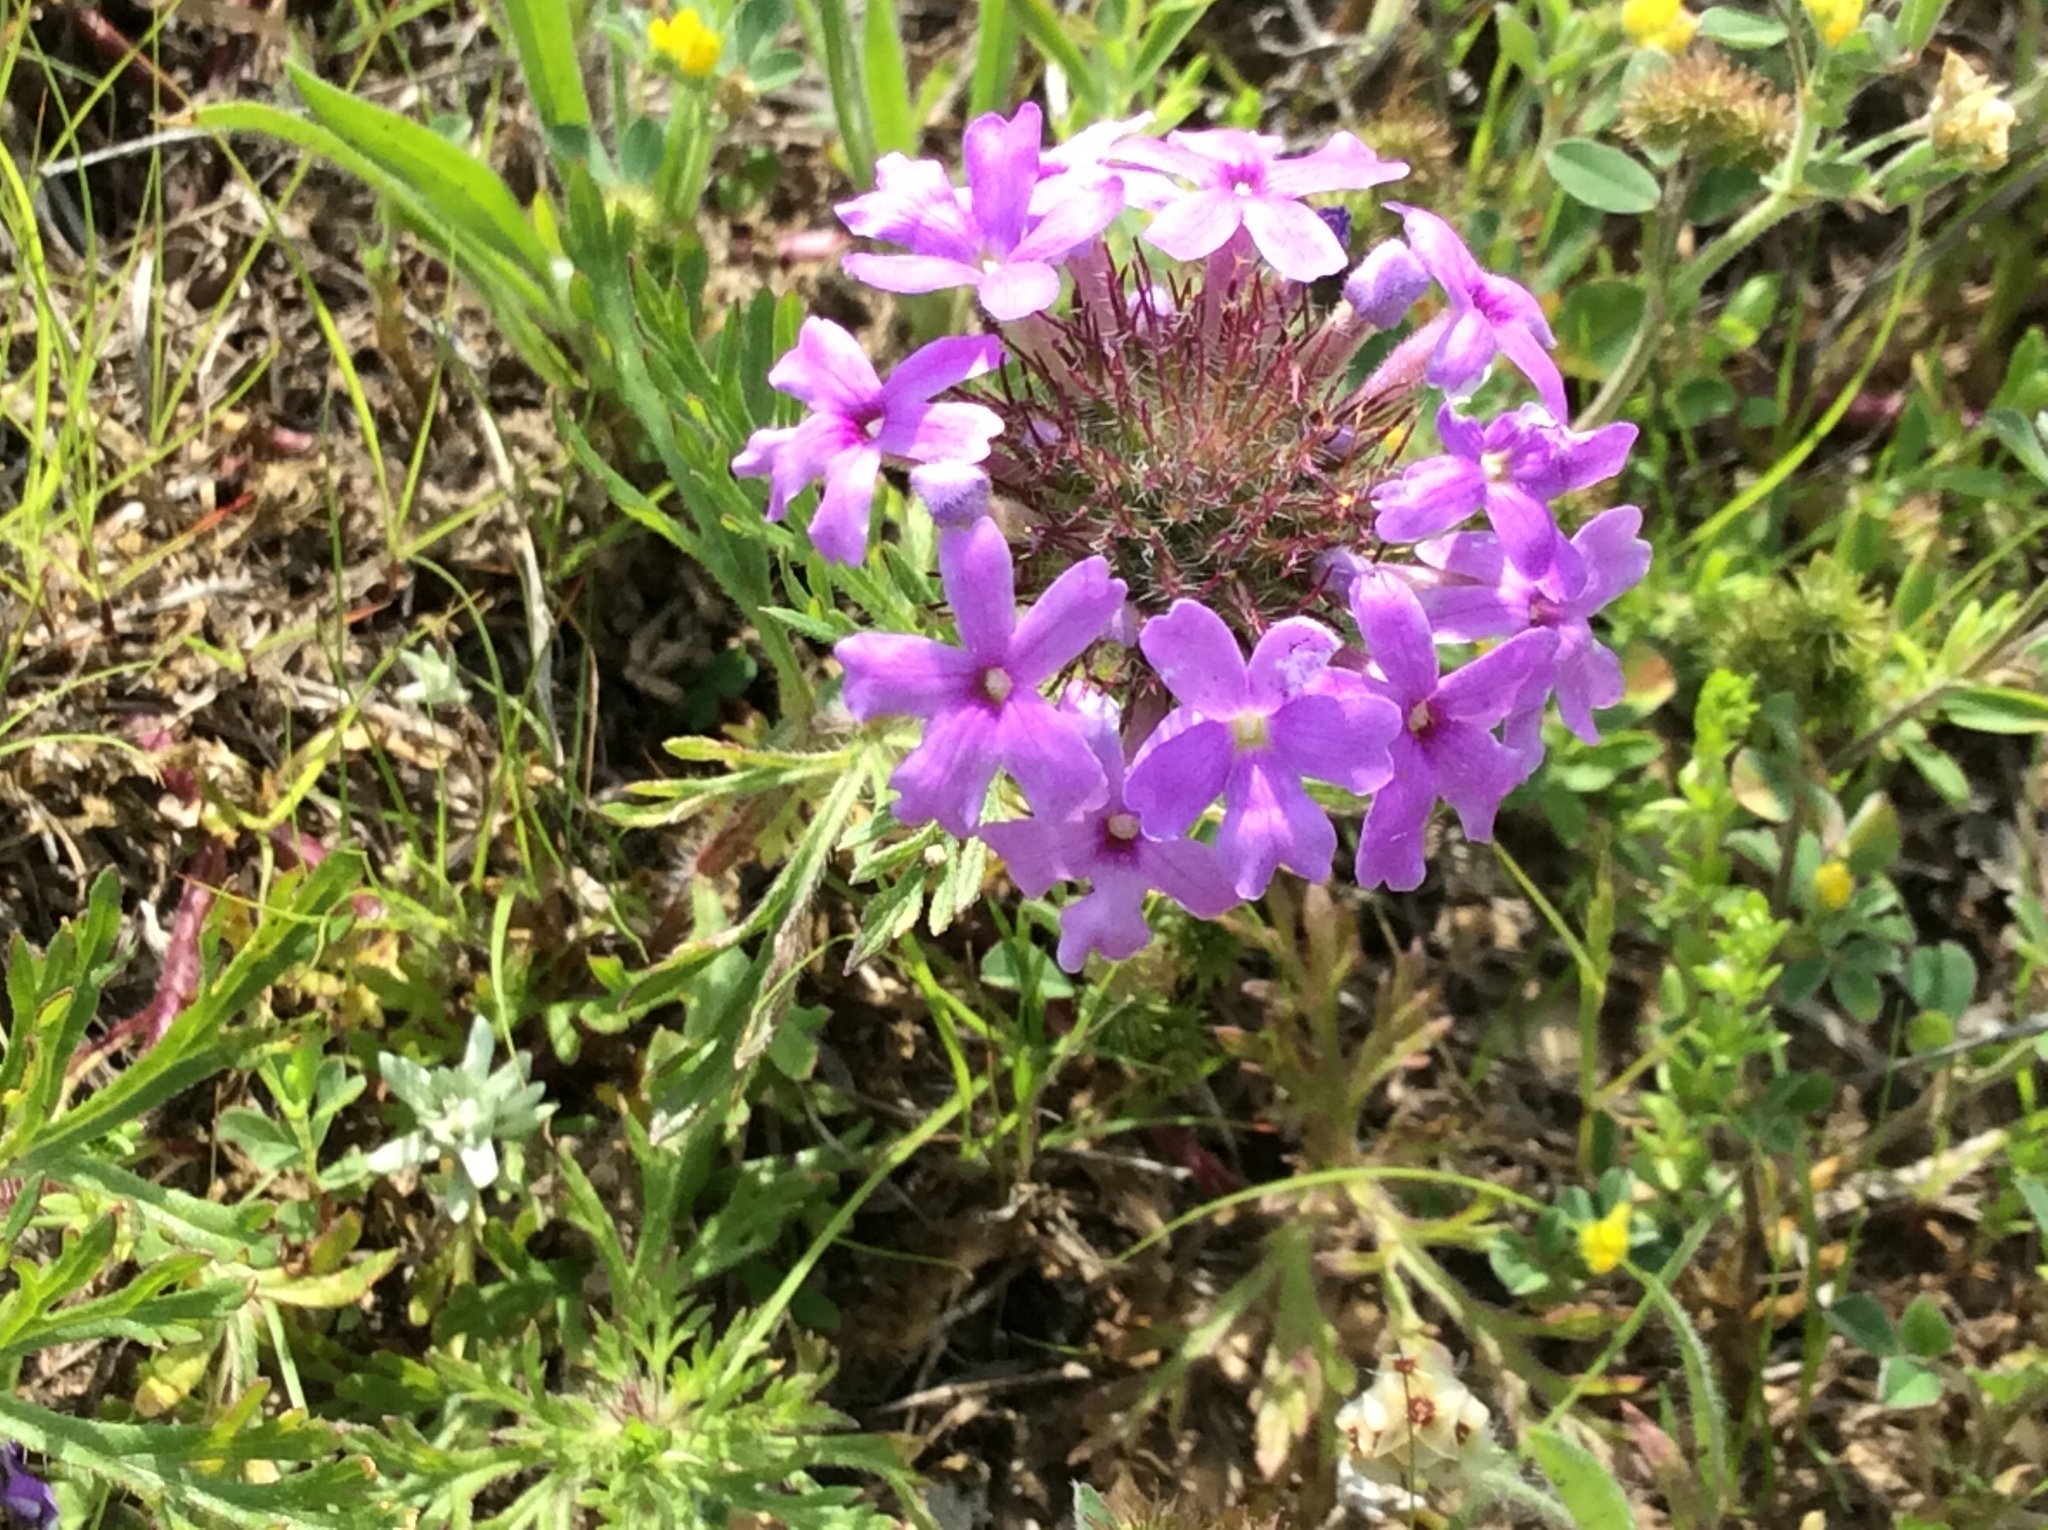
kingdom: Plantae
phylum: Tracheophyta
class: Magnoliopsida
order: Lamiales
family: Verbenaceae
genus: Verbena
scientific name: Verbena bipinnatifida
